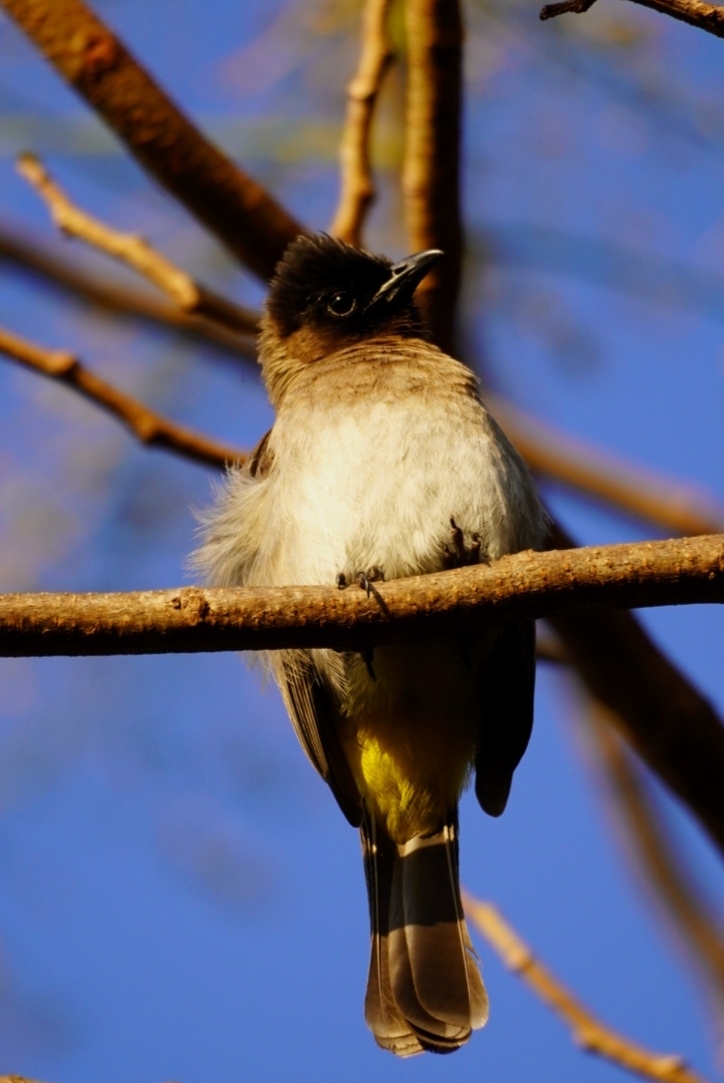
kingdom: Animalia
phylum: Chordata
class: Aves
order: Passeriformes
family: Pycnonotidae
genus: Pycnonotus
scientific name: Pycnonotus barbatus
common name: Common bulbul
